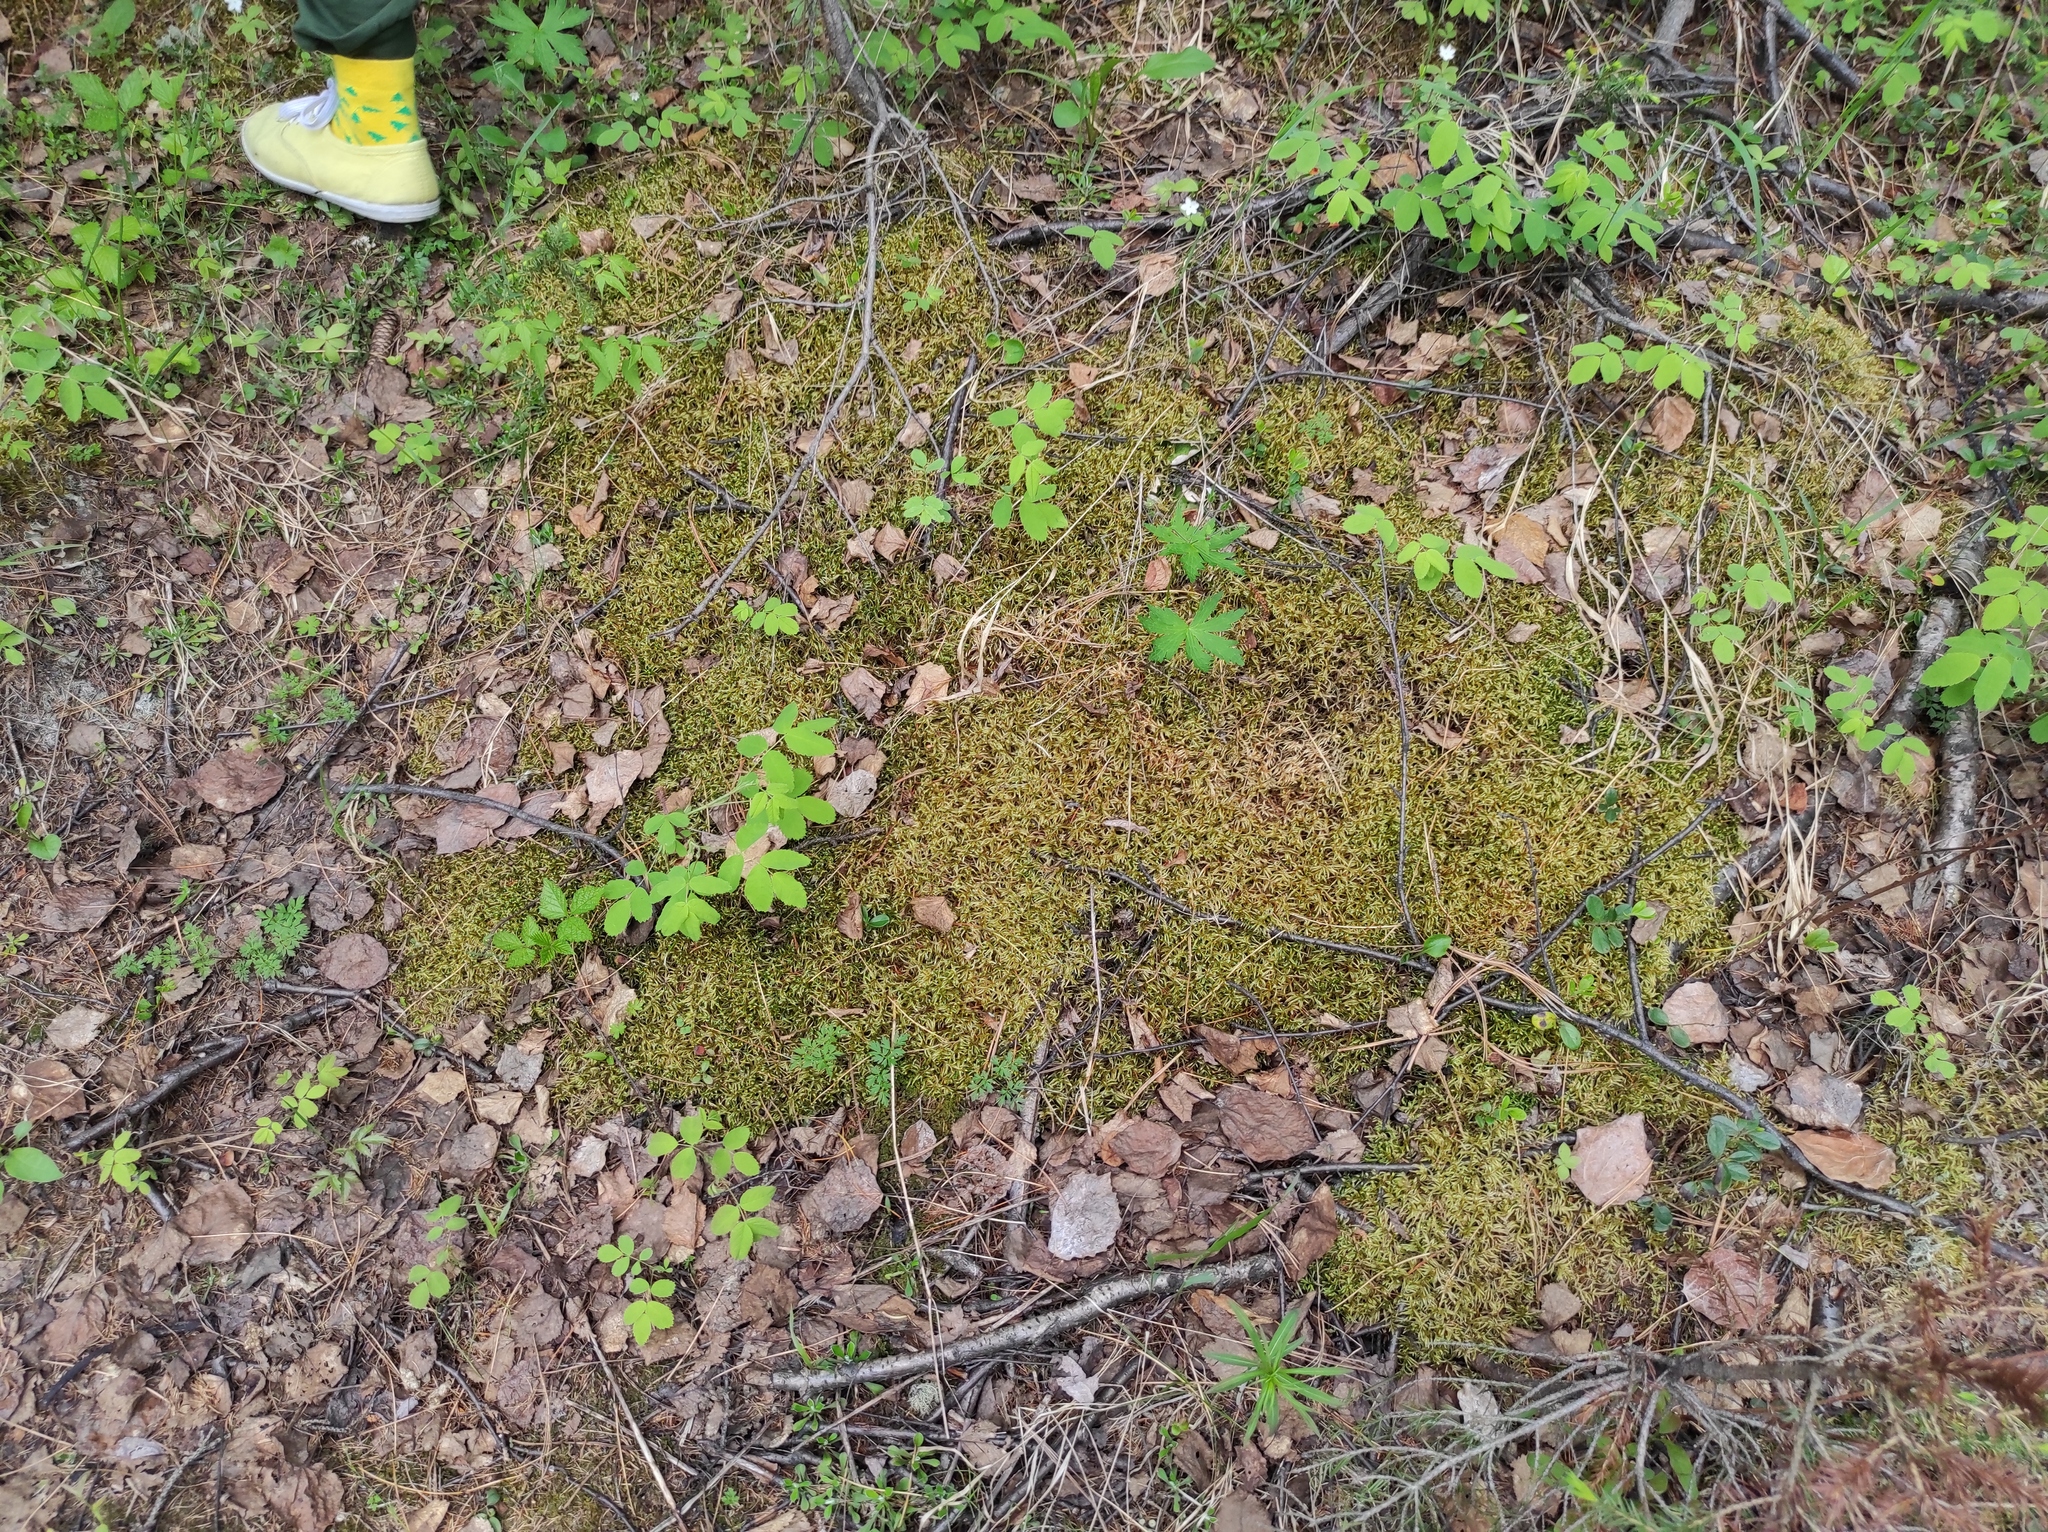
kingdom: Plantae
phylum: Tracheophyta
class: Magnoliopsida
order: Rosales
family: Rosaceae
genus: Rosa
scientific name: Rosa acicularis
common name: Prickly rose
